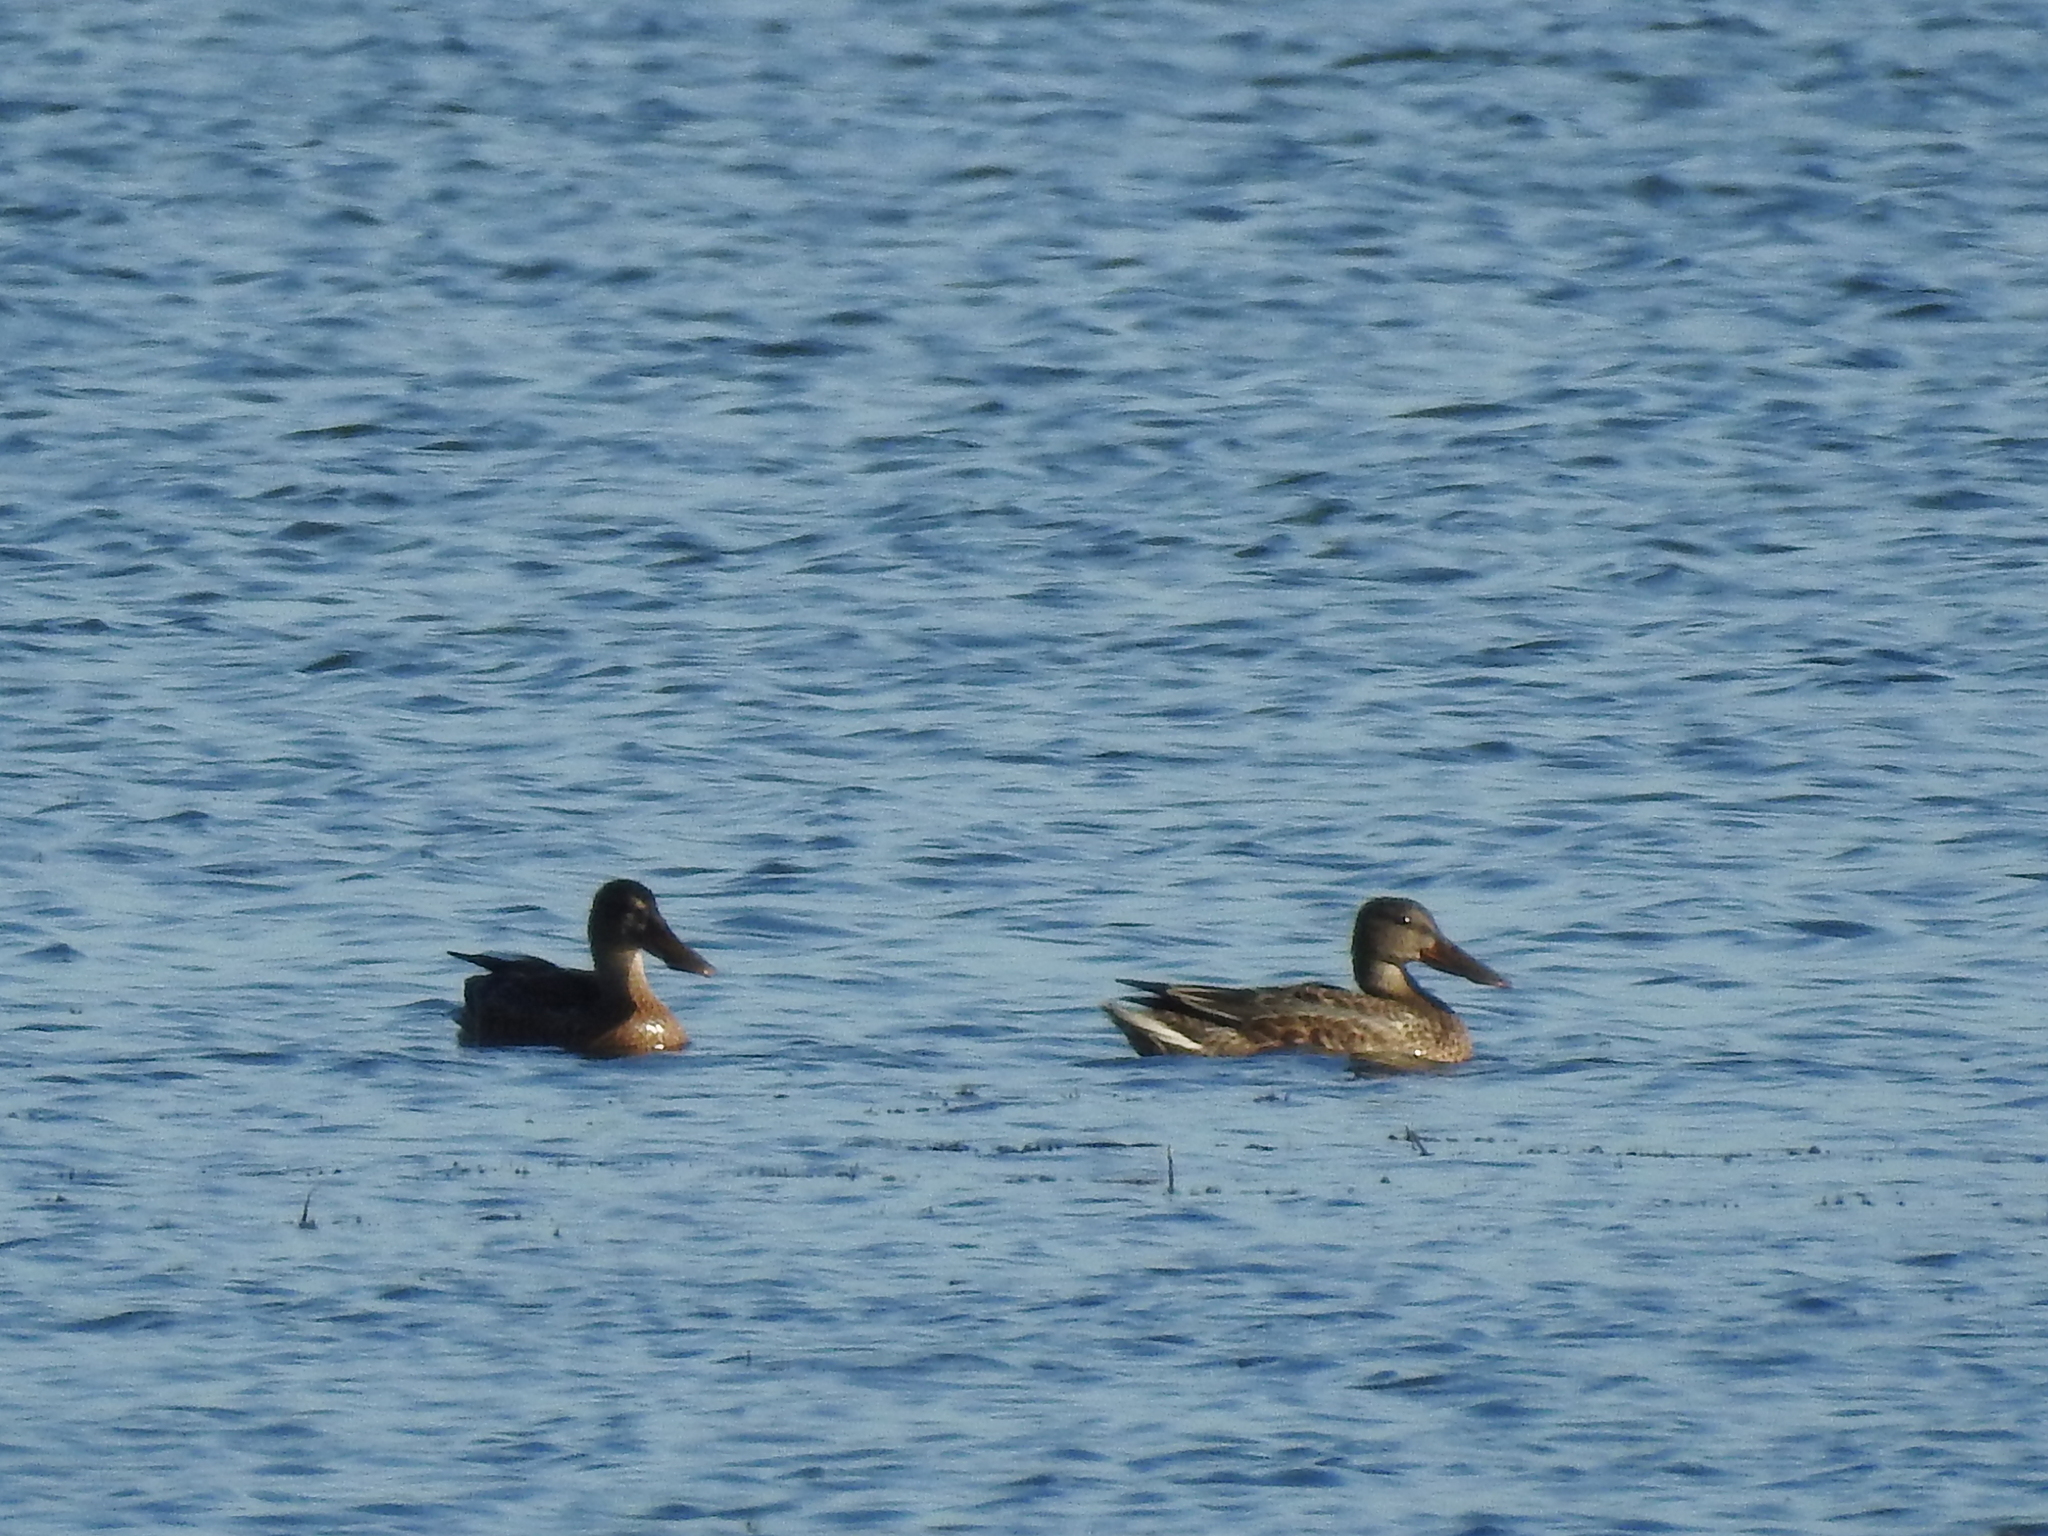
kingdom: Animalia
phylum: Chordata
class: Aves
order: Anseriformes
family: Anatidae
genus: Spatula
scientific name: Spatula clypeata
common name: Northern shoveler
